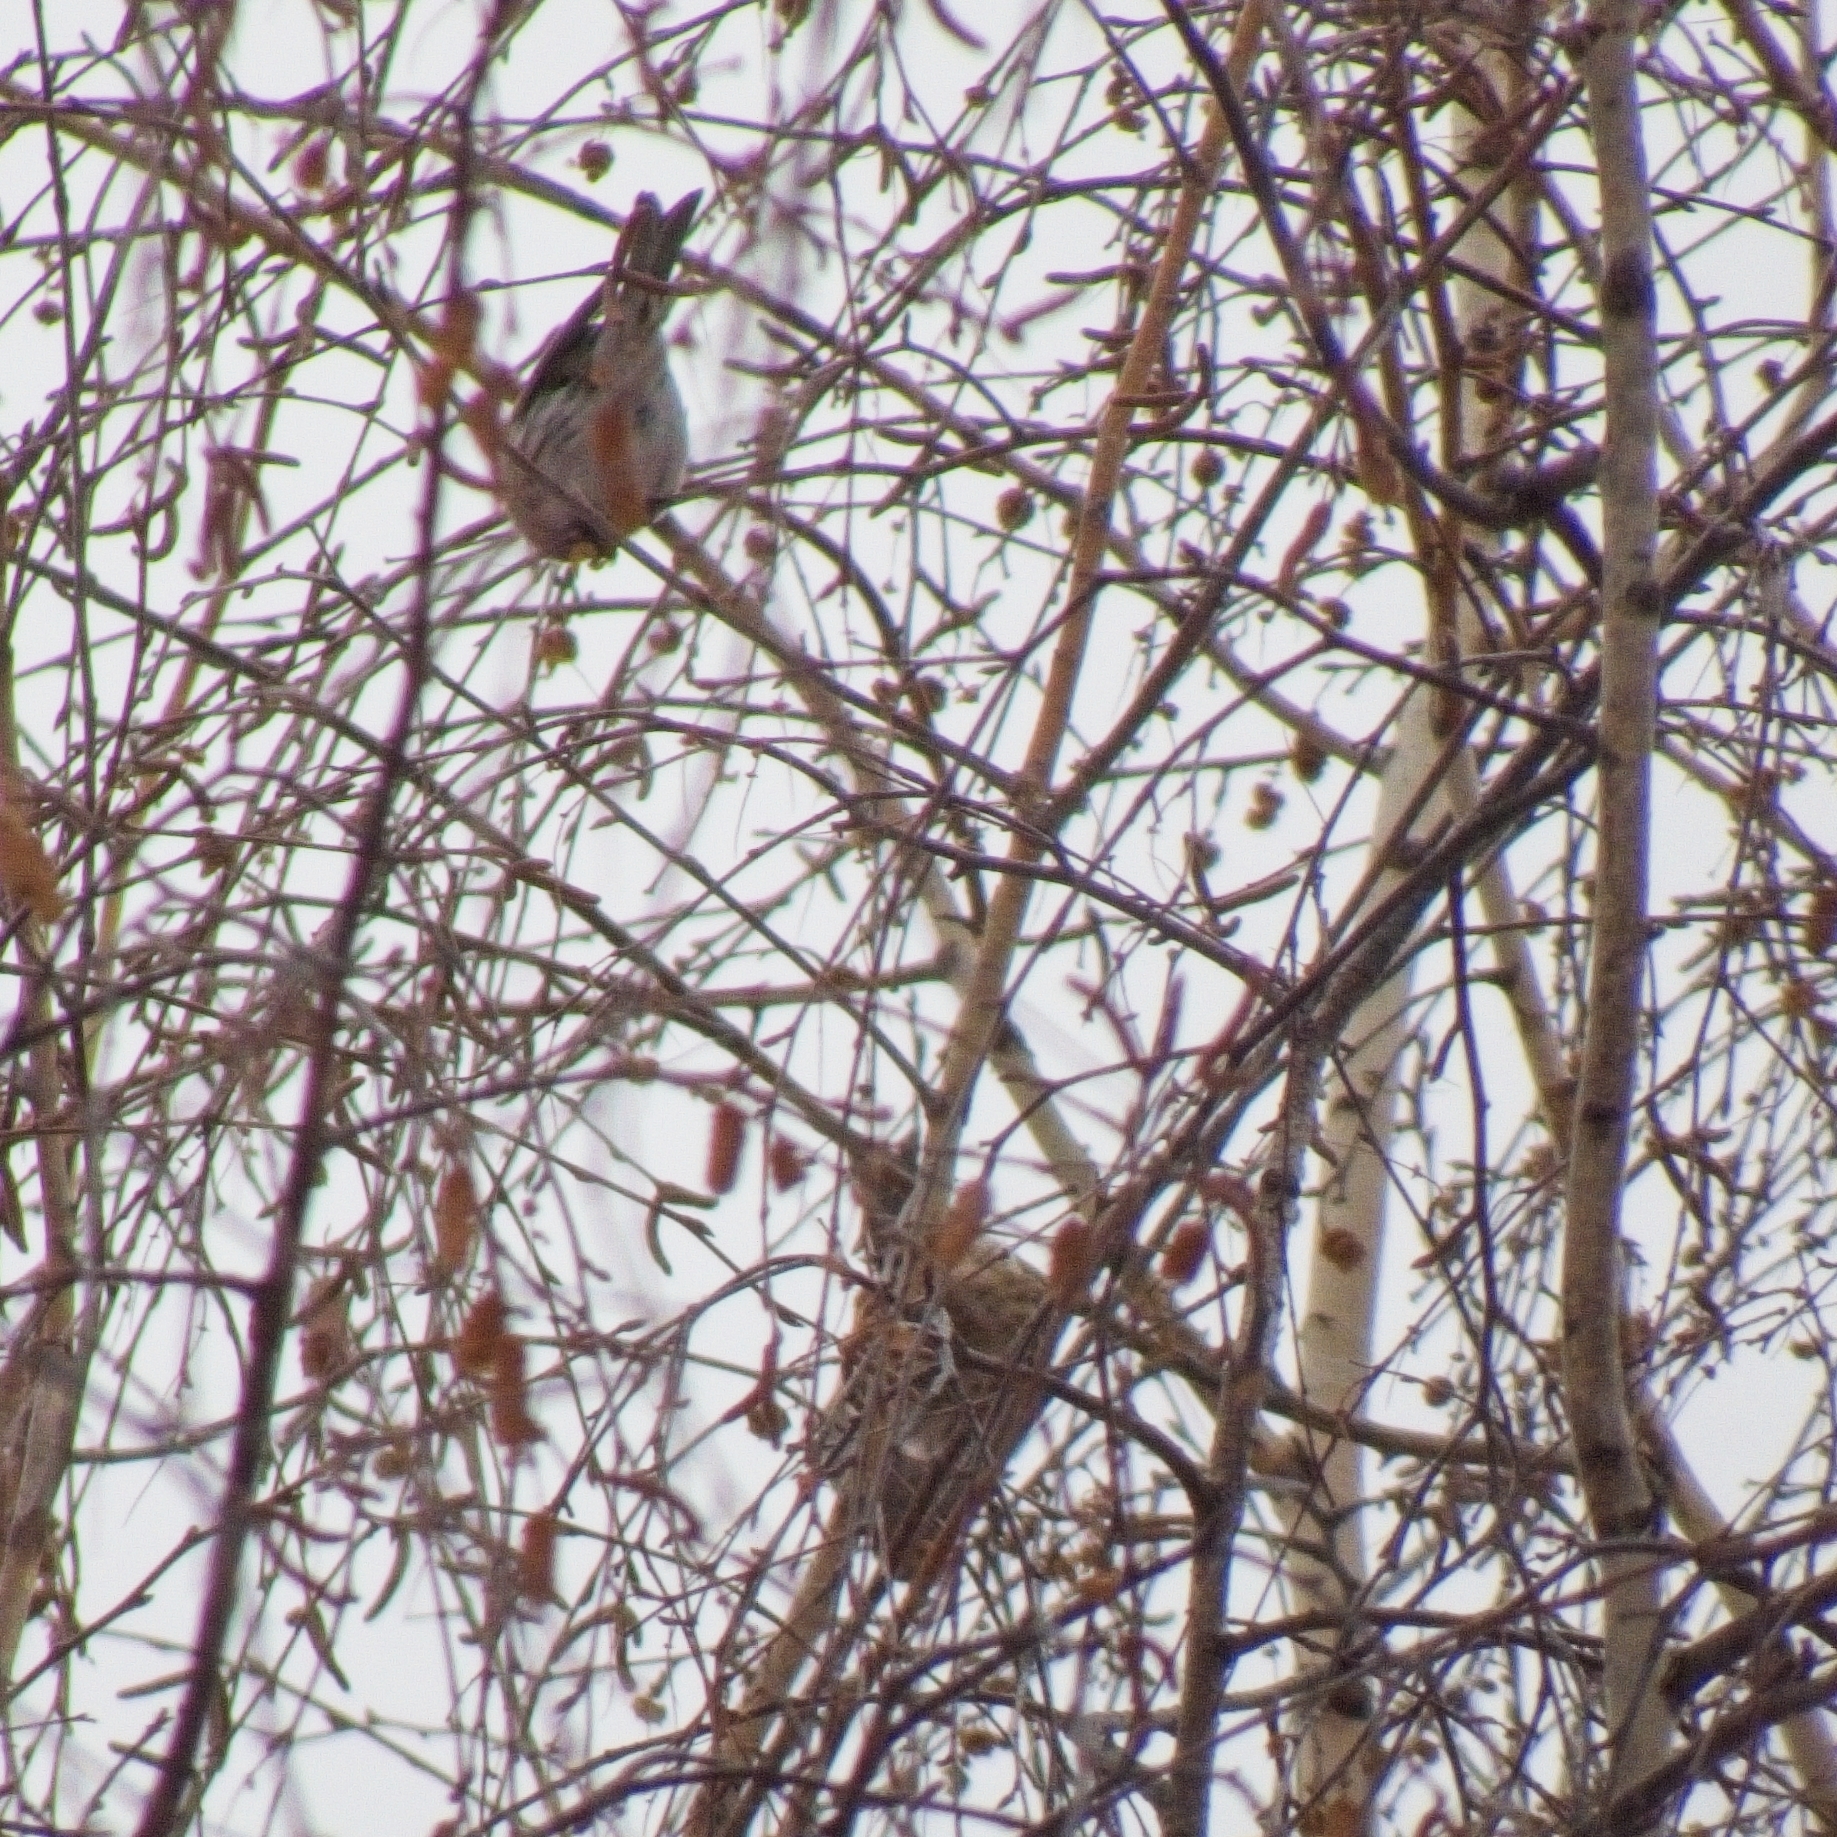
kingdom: Animalia
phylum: Chordata
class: Aves
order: Passeriformes
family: Fringillidae
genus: Acanthis
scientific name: Acanthis flammea
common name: Common redpoll
